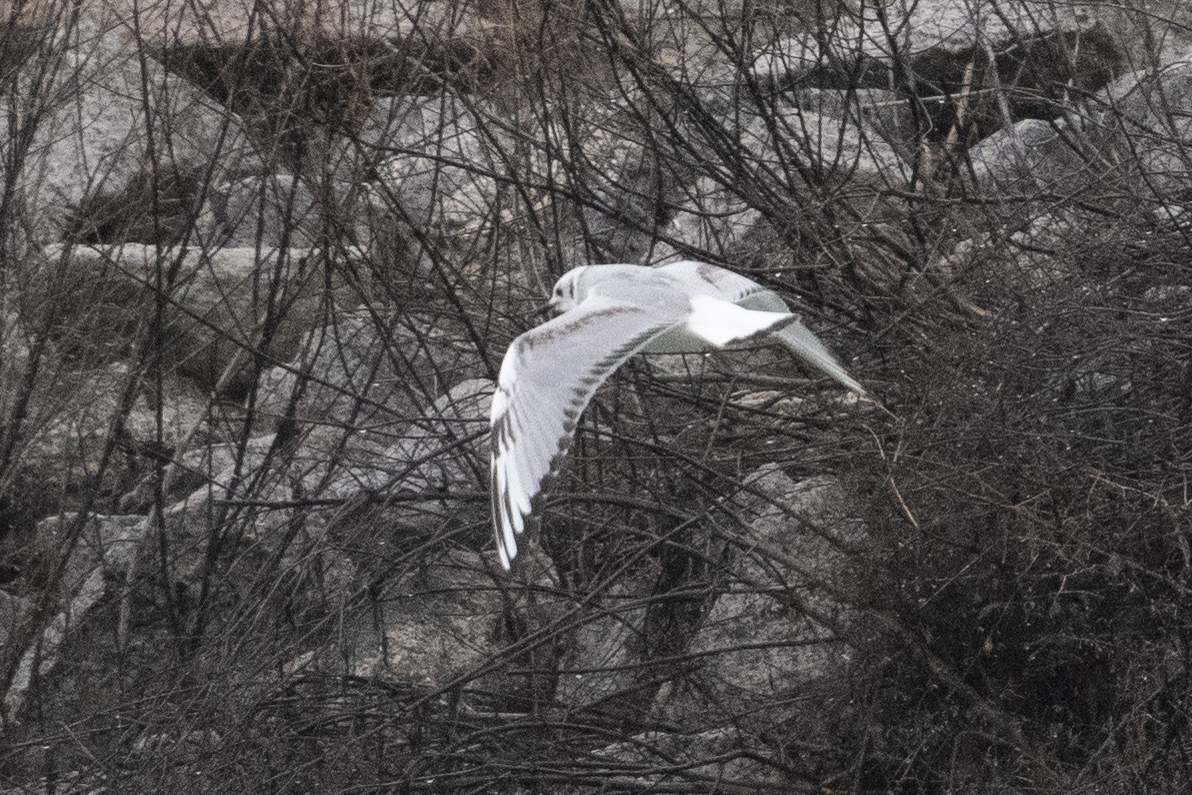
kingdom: Animalia
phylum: Chordata
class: Aves
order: Charadriiformes
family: Laridae
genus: Chroicocephalus
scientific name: Chroicocephalus philadelphia
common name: Bonaparte's gull
